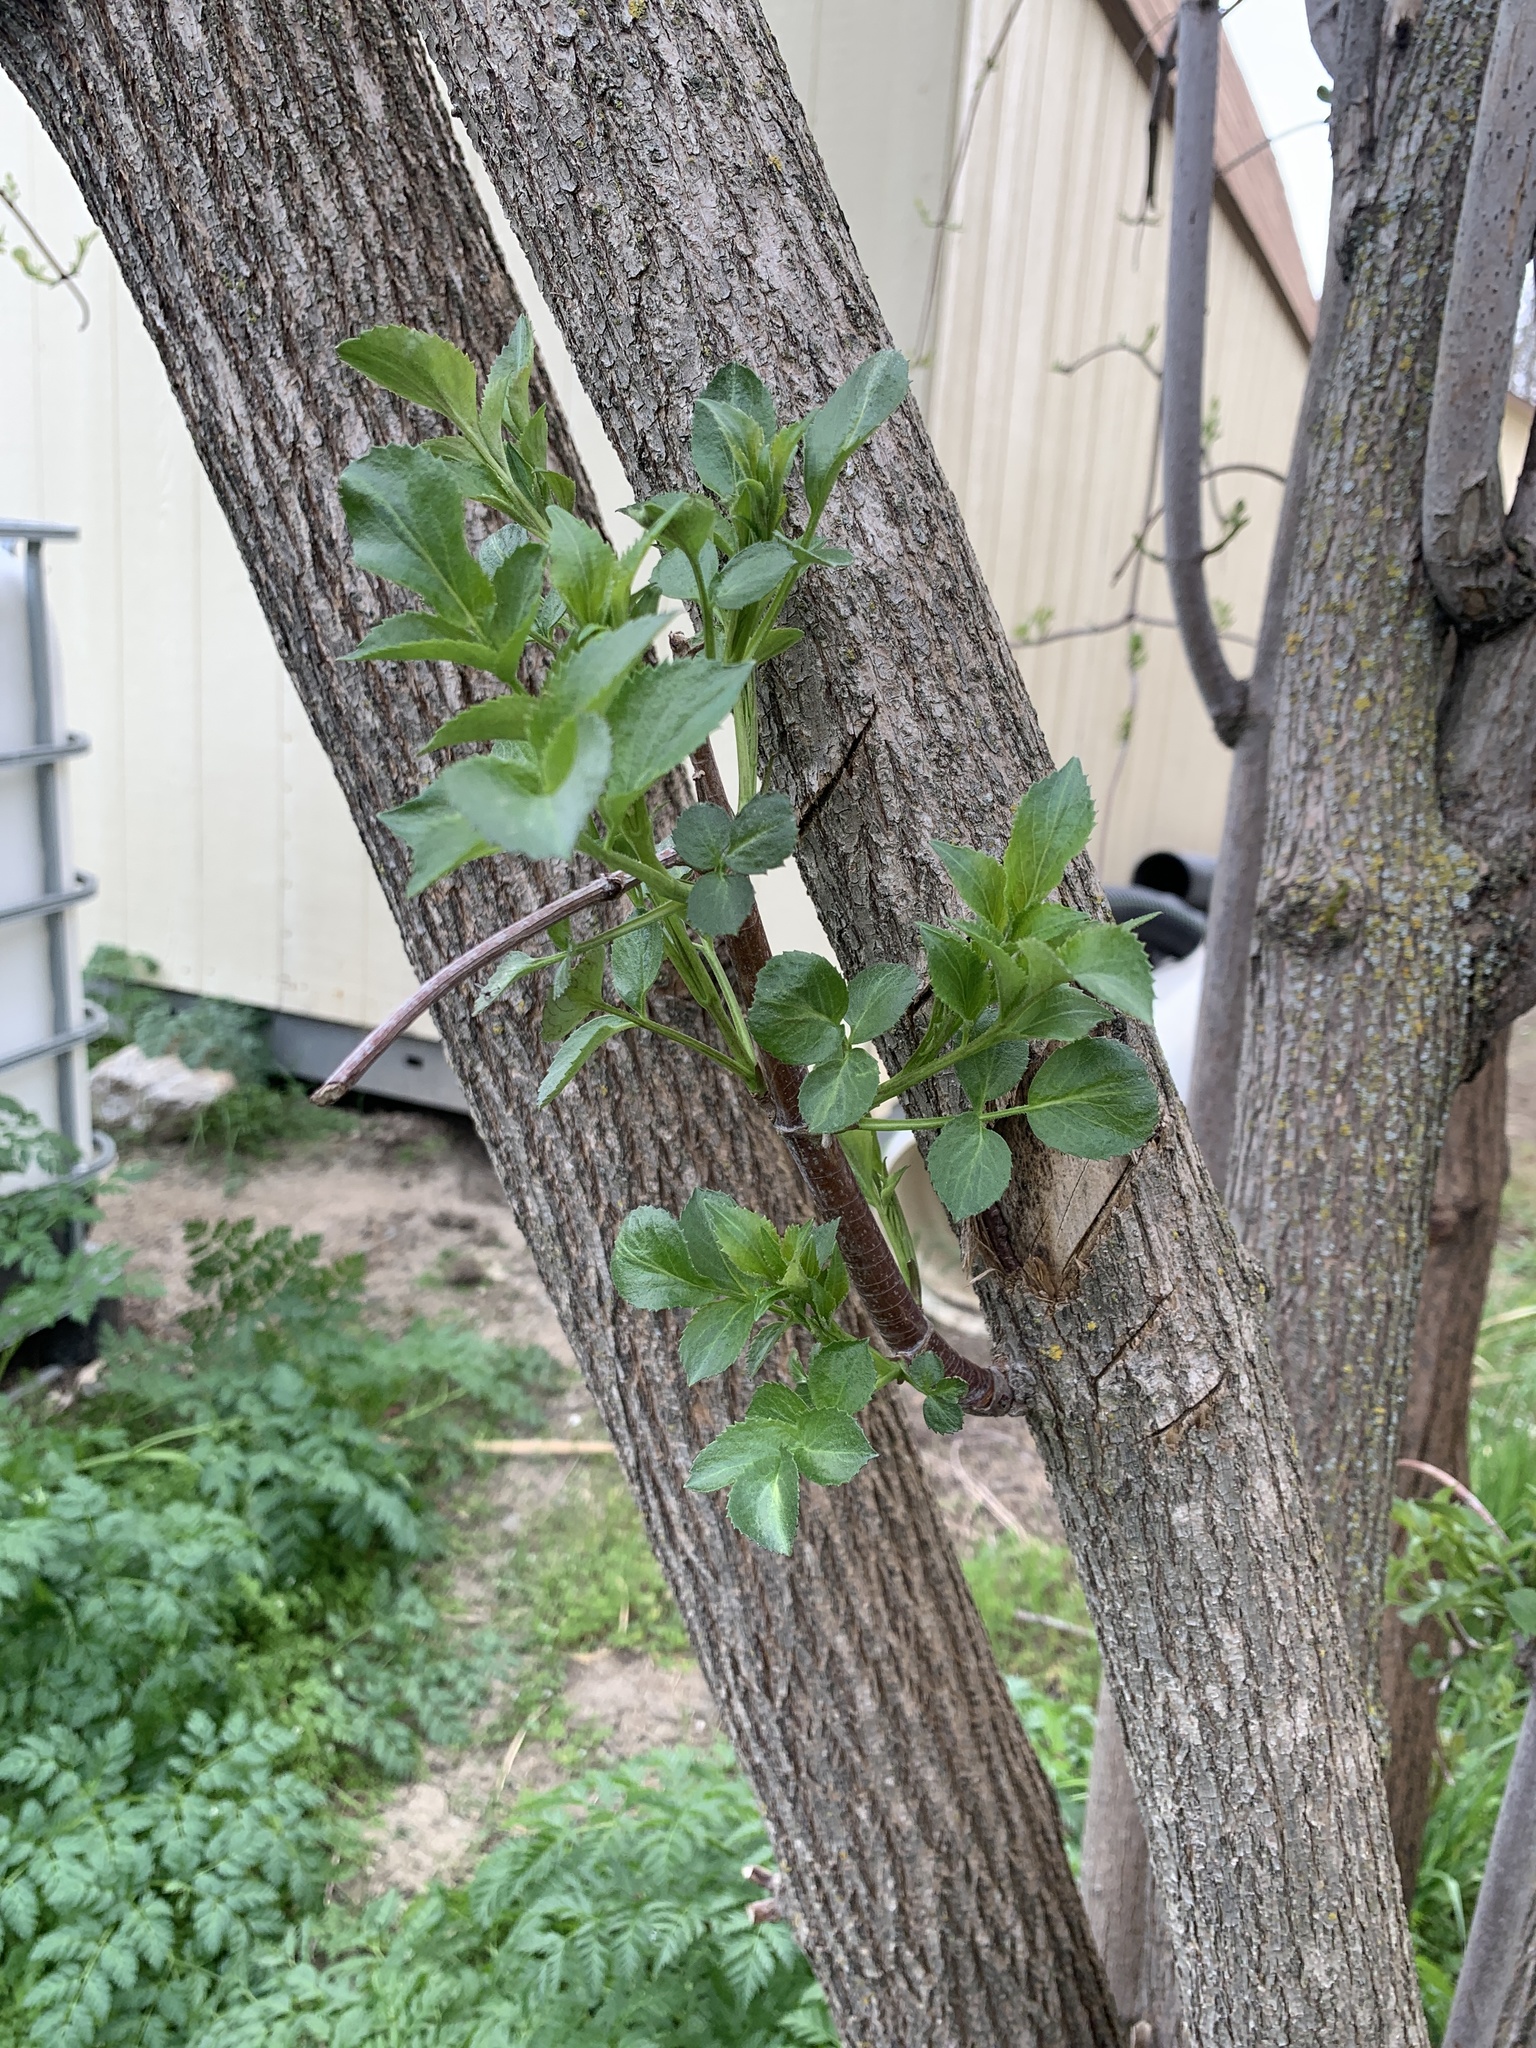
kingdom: Plantae
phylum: Tracheophyta
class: Magnoliopsida
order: Dipsacales
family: Viburnaceae
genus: Sambucus
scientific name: Sambucus cerulea
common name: Blue elder
